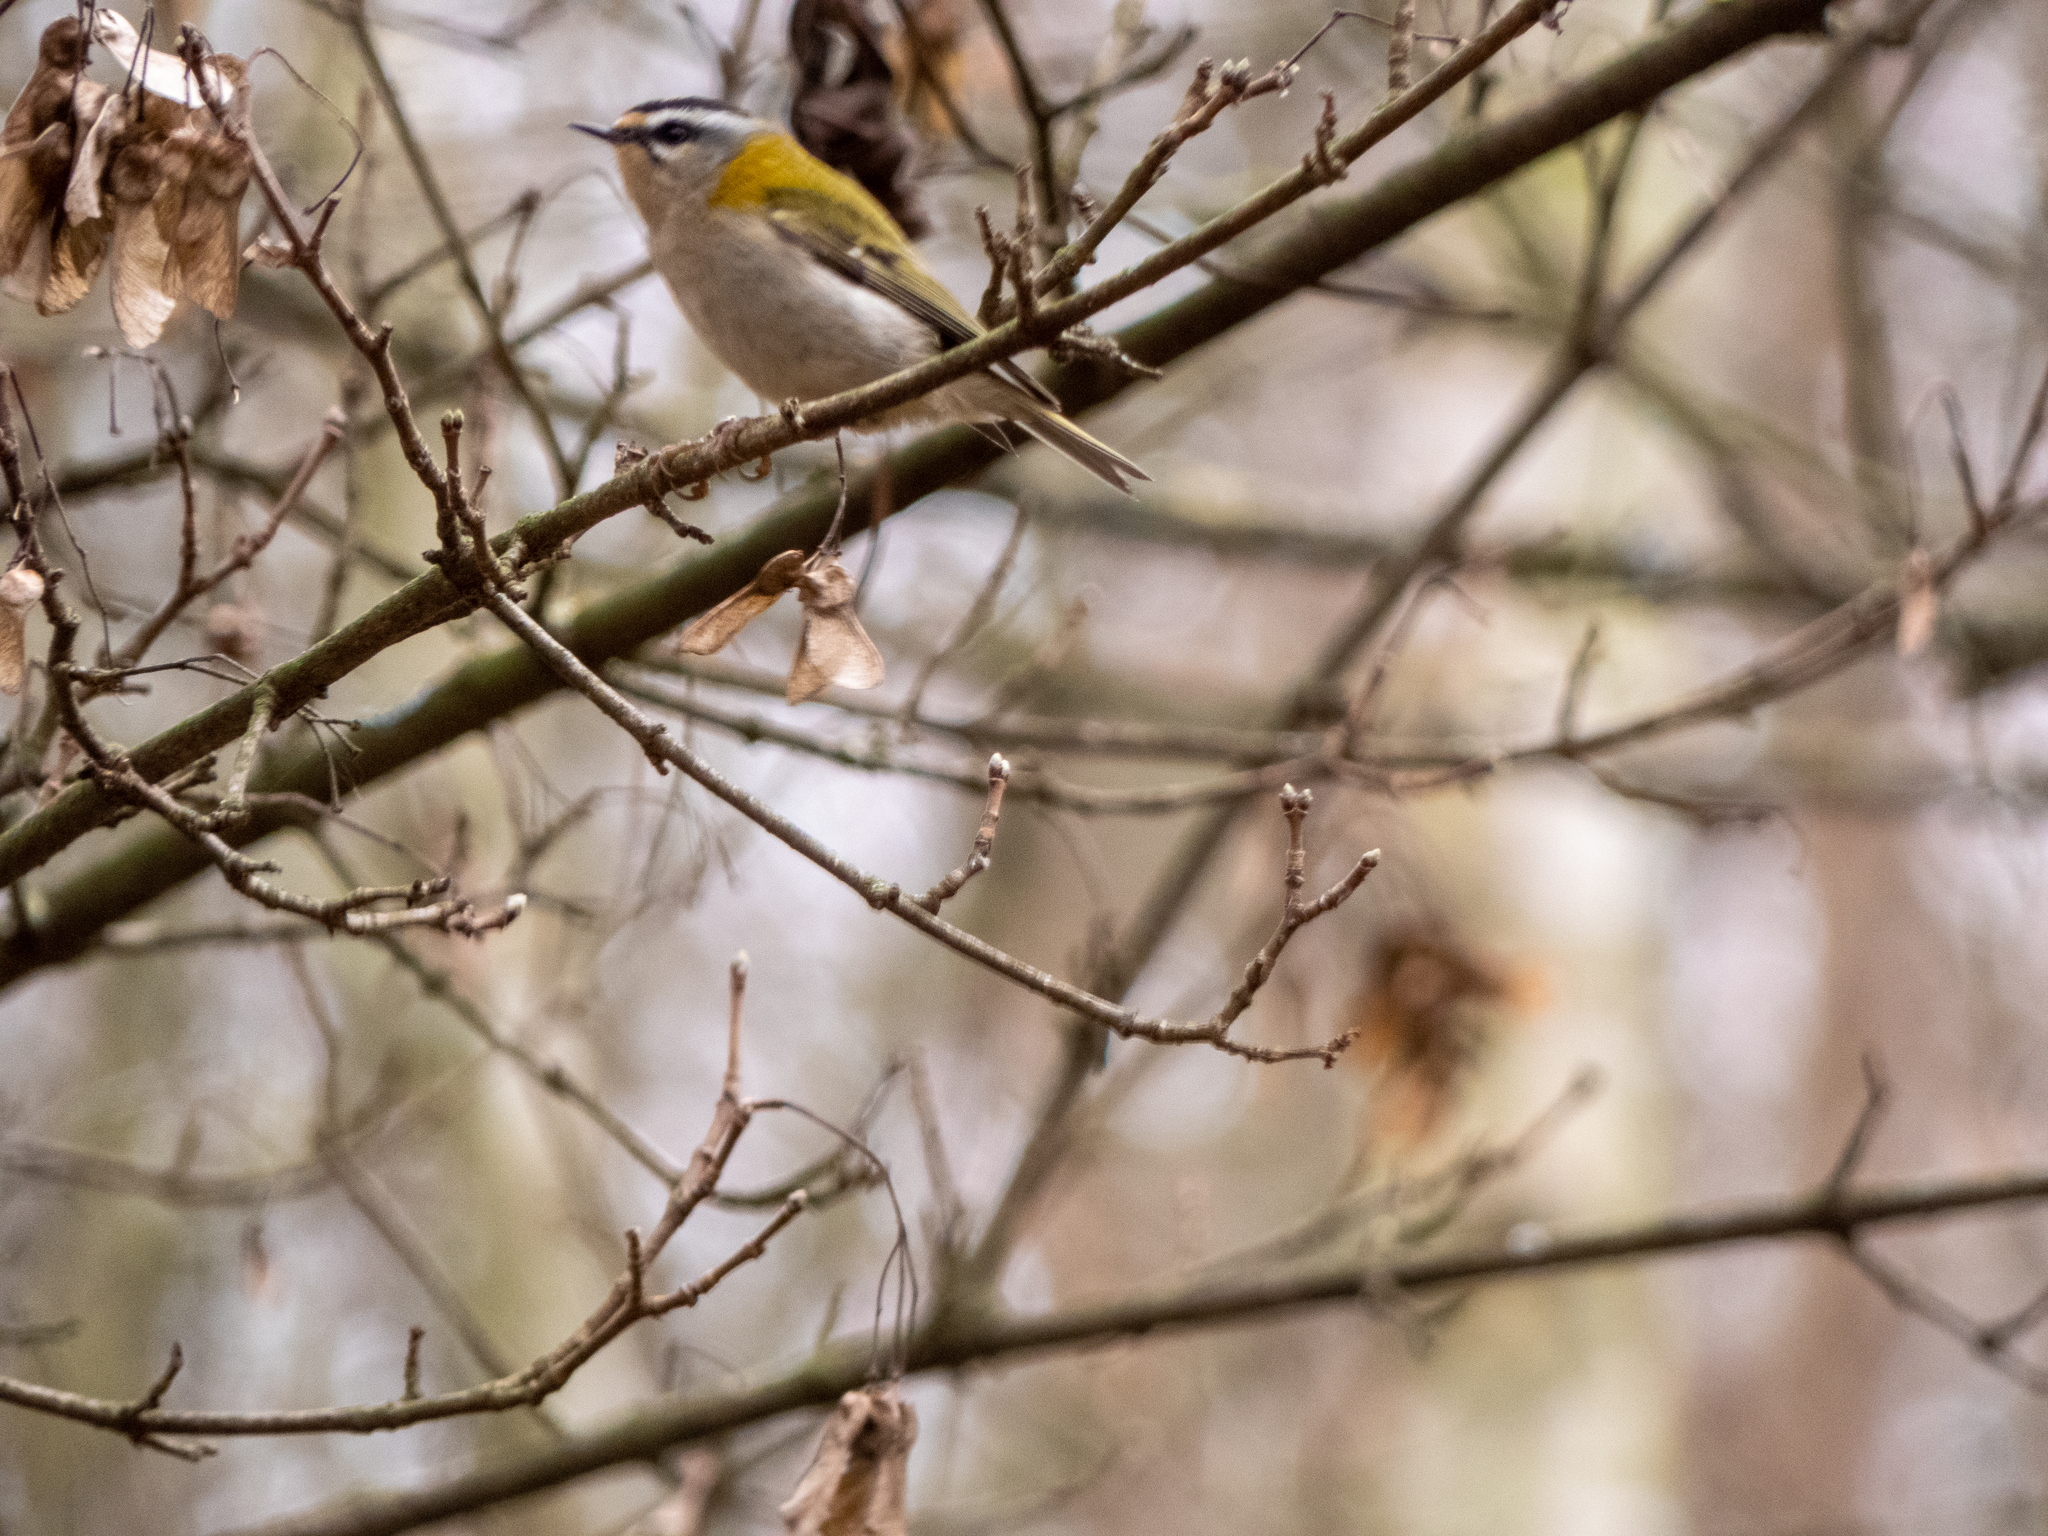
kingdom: Animalia
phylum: Chordata
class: Aves
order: Passeriformes
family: Regulidae
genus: Regulus
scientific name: Regulus ignicapilla
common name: Firecrest
